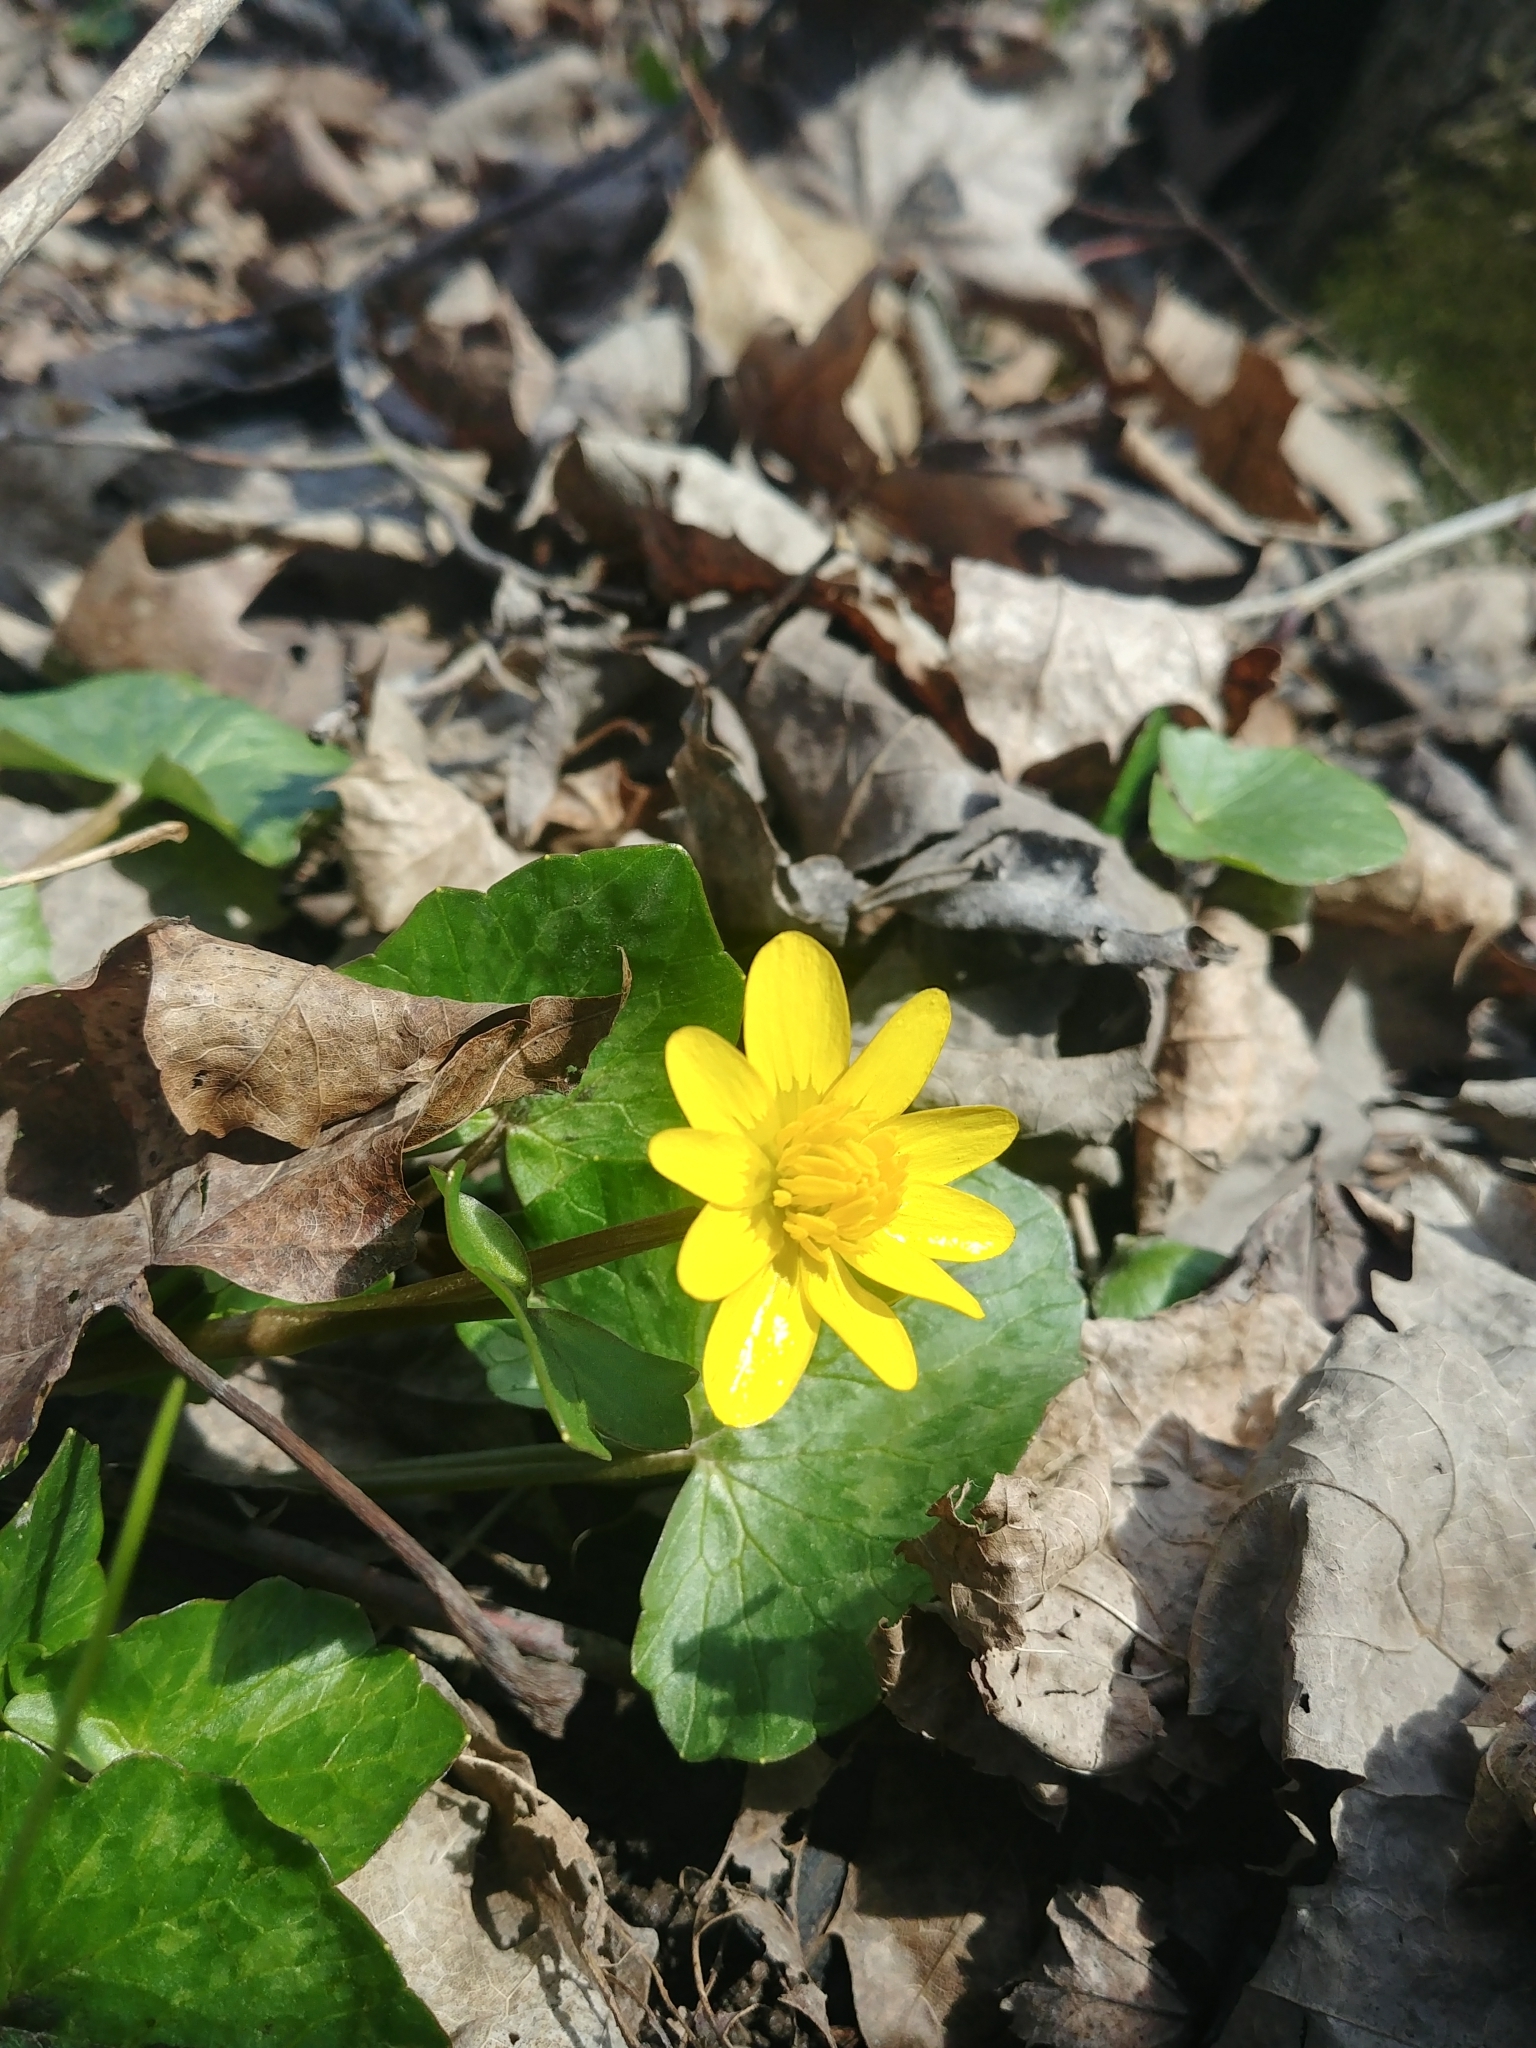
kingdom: Plantae
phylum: Tracheophyta
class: Magnoliopsida
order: Ranunculales
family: Ranunculaceae
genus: Ficaria
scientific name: Ficaria verna
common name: Lesser celandine
